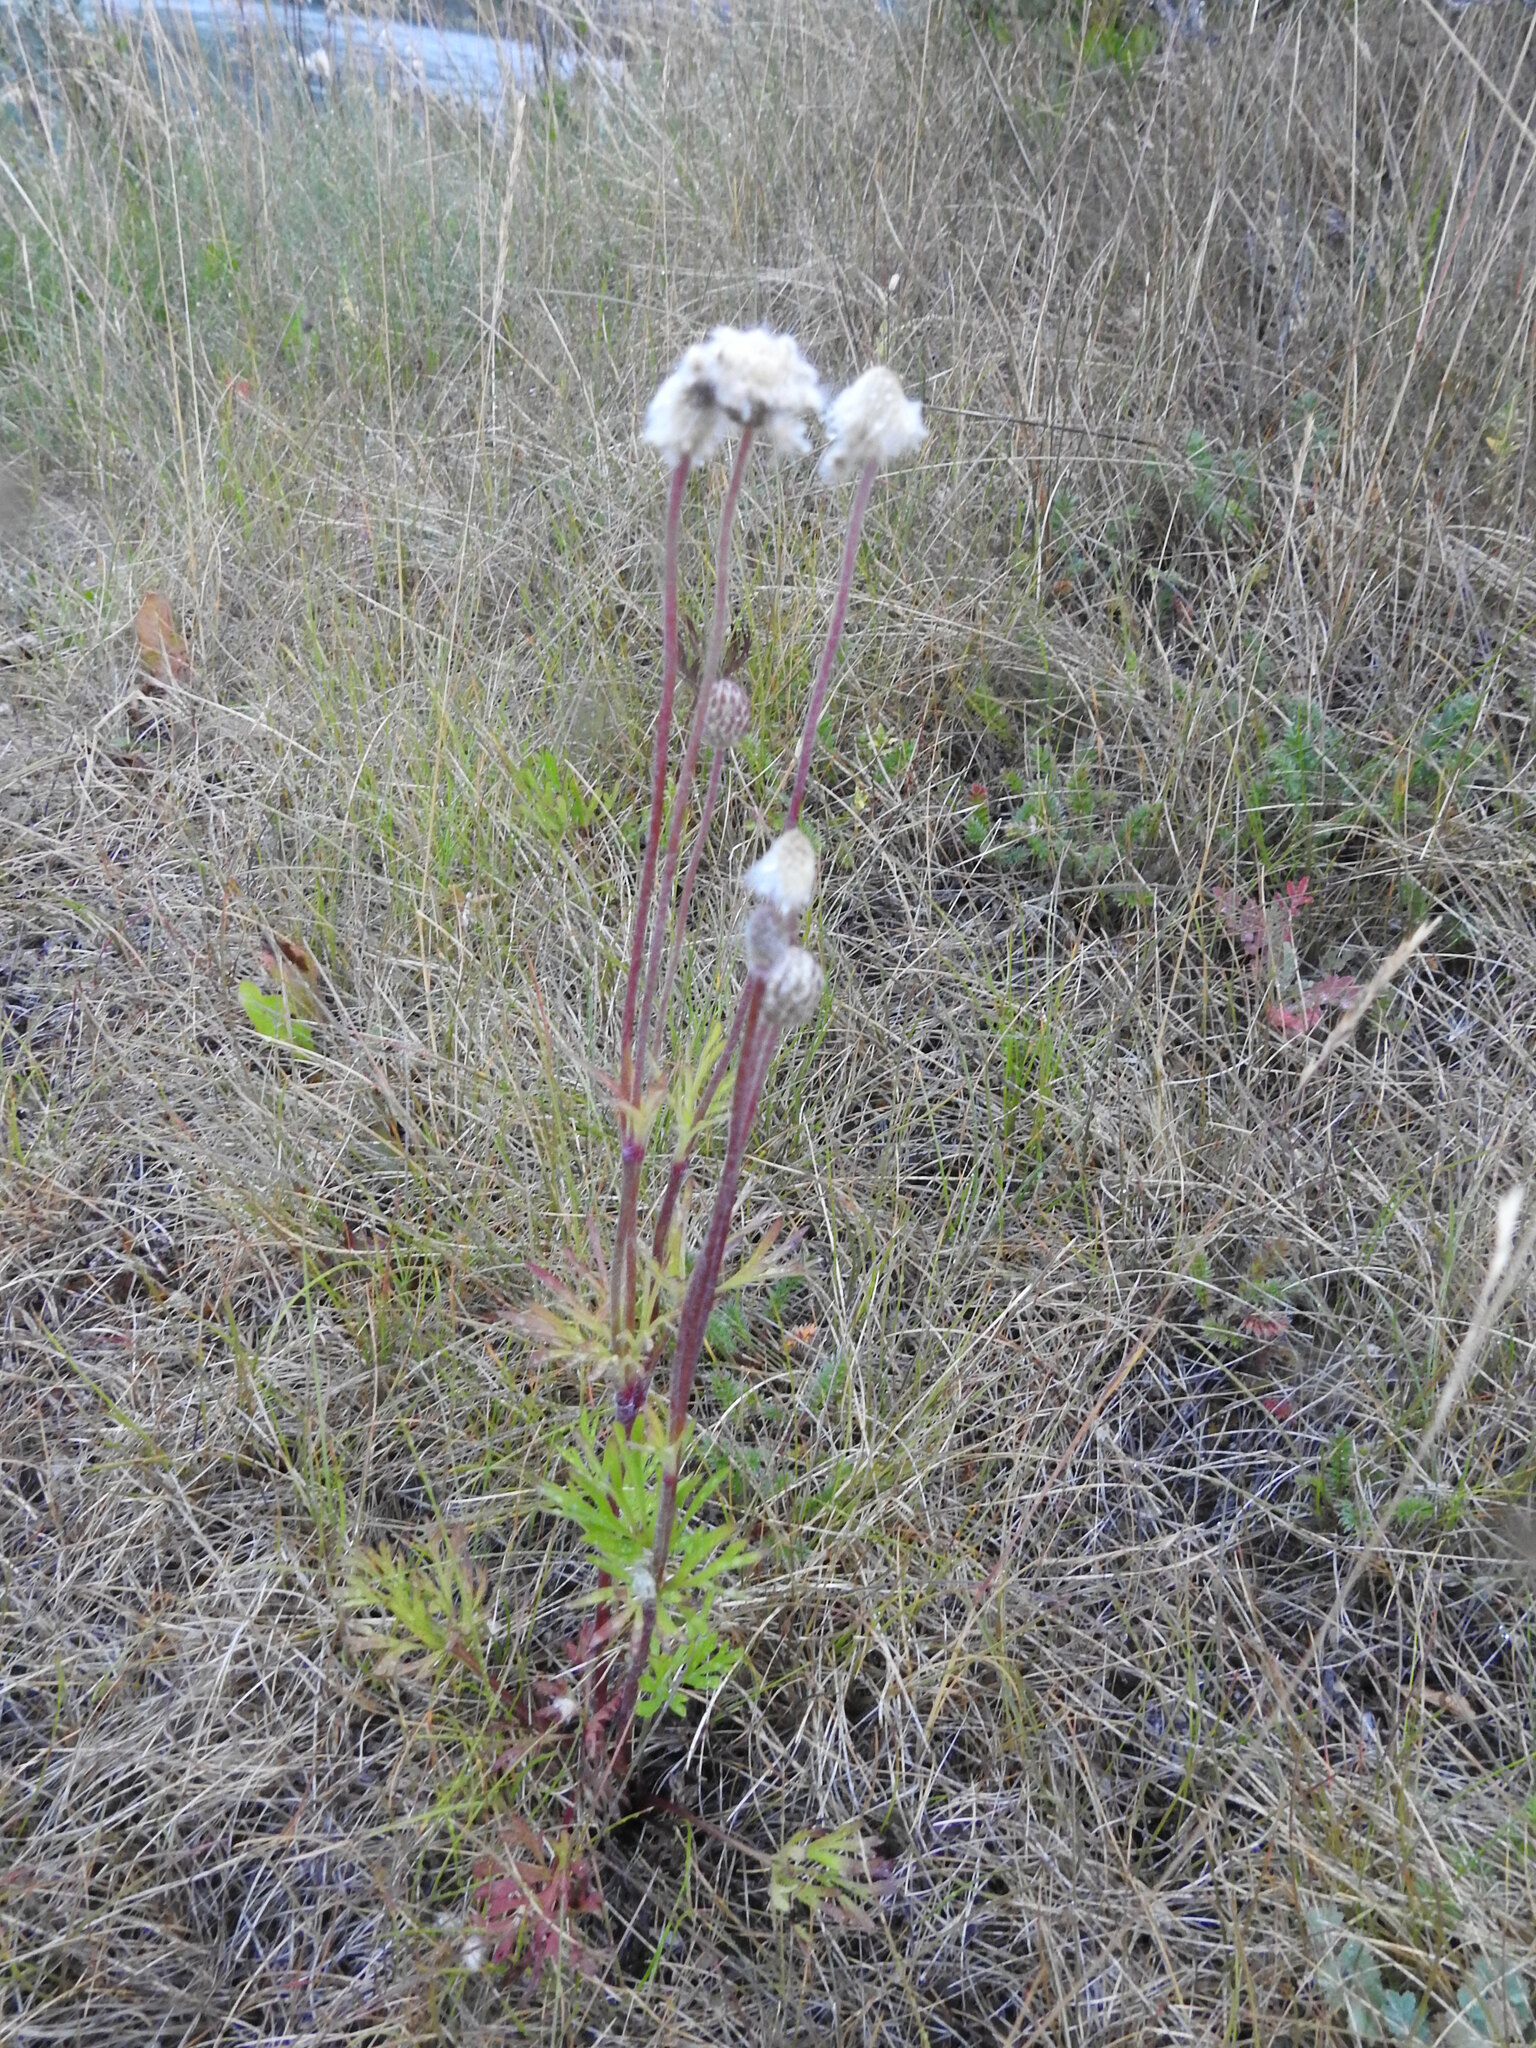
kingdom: Plantae
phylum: Tracheophyta
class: Magnoliopsida
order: Ranunculales
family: Ranunculaceae
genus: Anemone
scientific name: Anemone multifida
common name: Bird's-foot anemone
